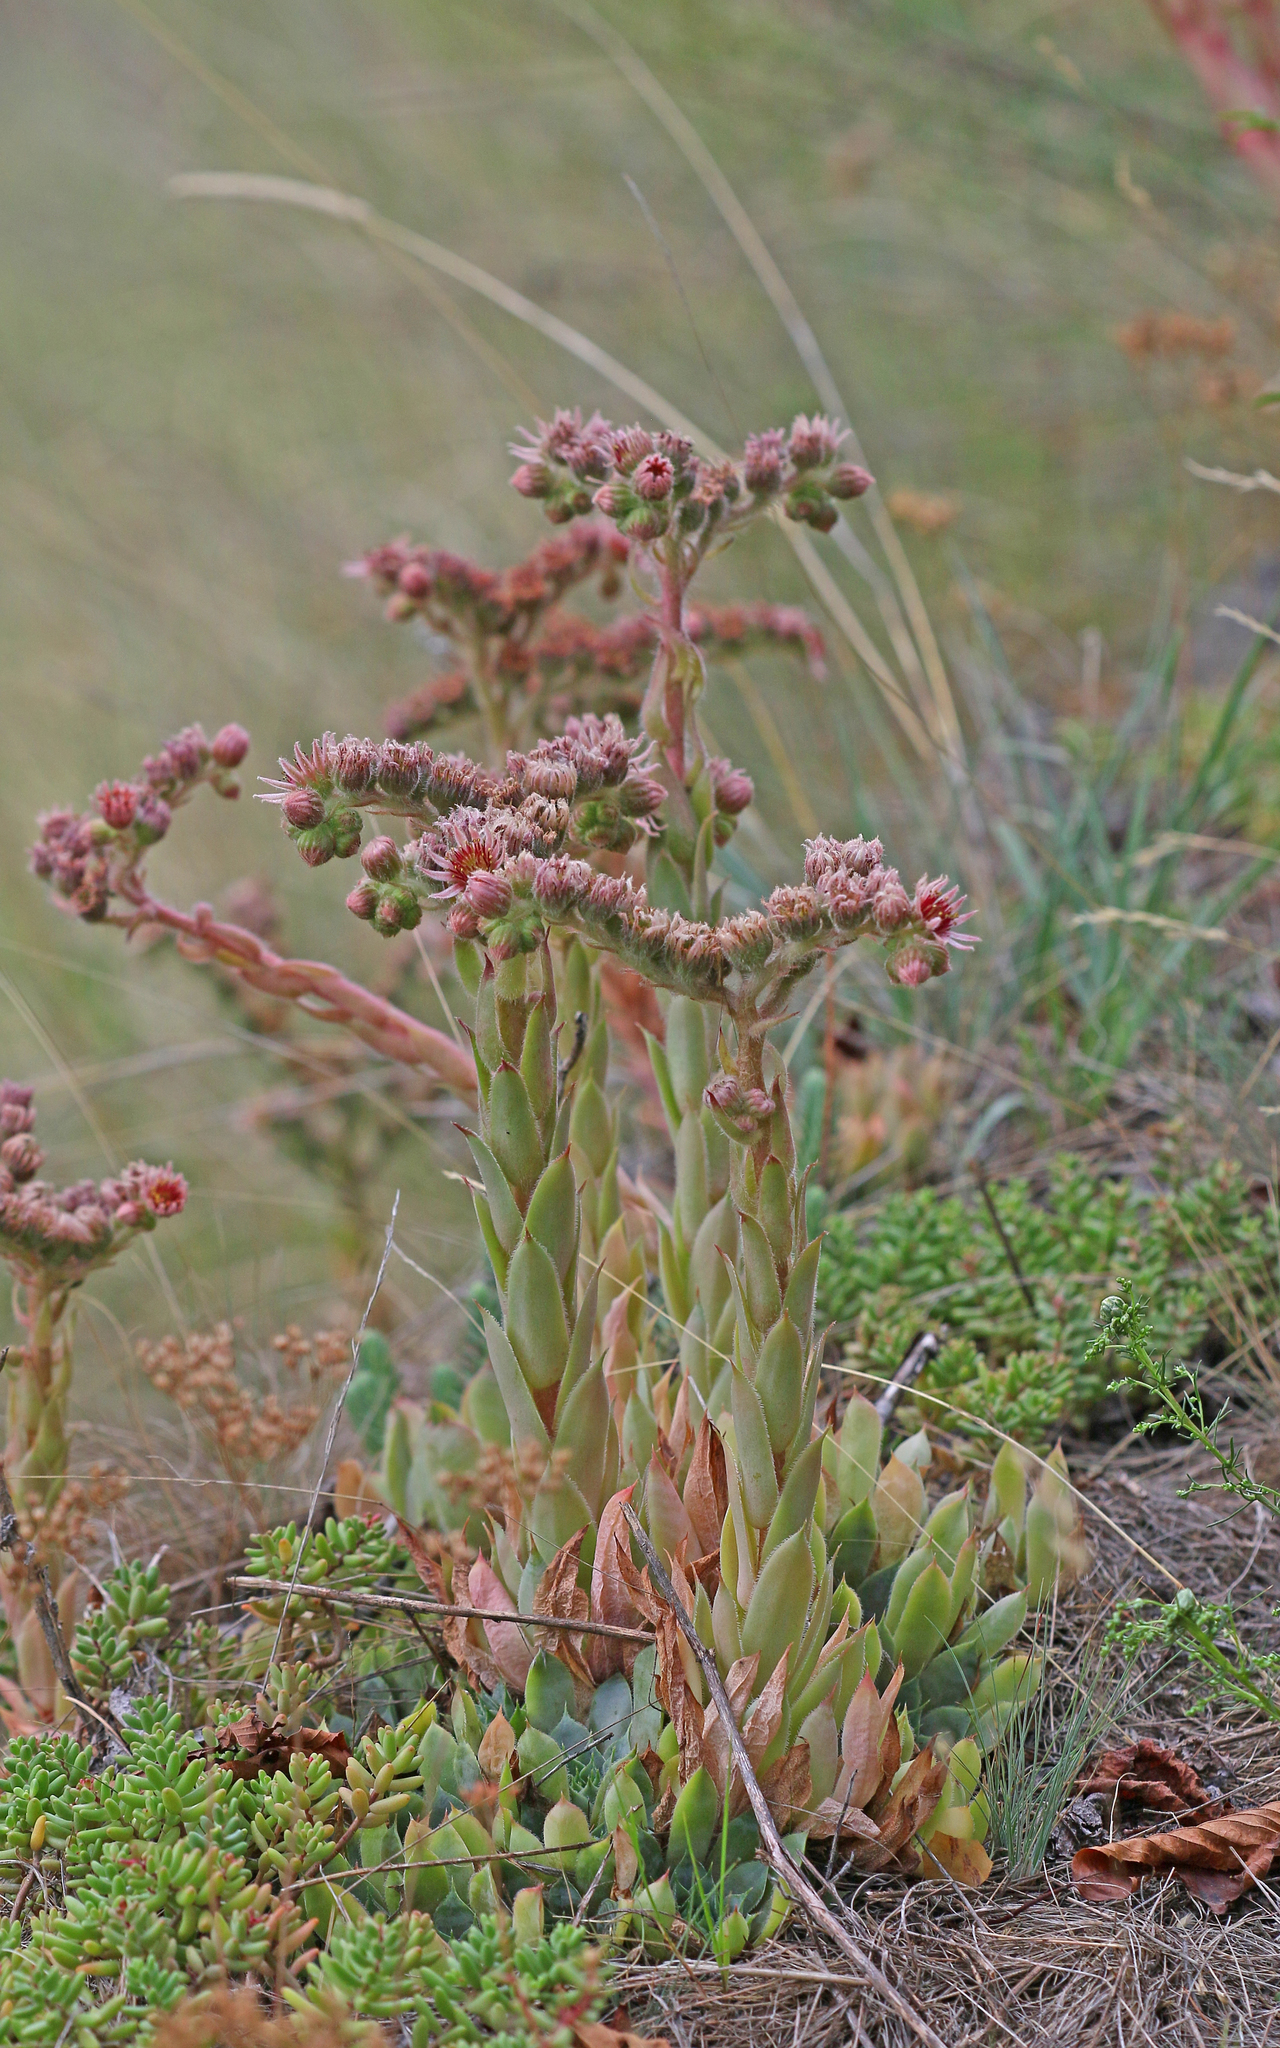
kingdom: Plantae
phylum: Tracheophyta
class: Magnoliopsida
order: Saxifragales
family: Crassulaceae
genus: Sempervivum
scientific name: Sempervivum tectorum
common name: House-leek
